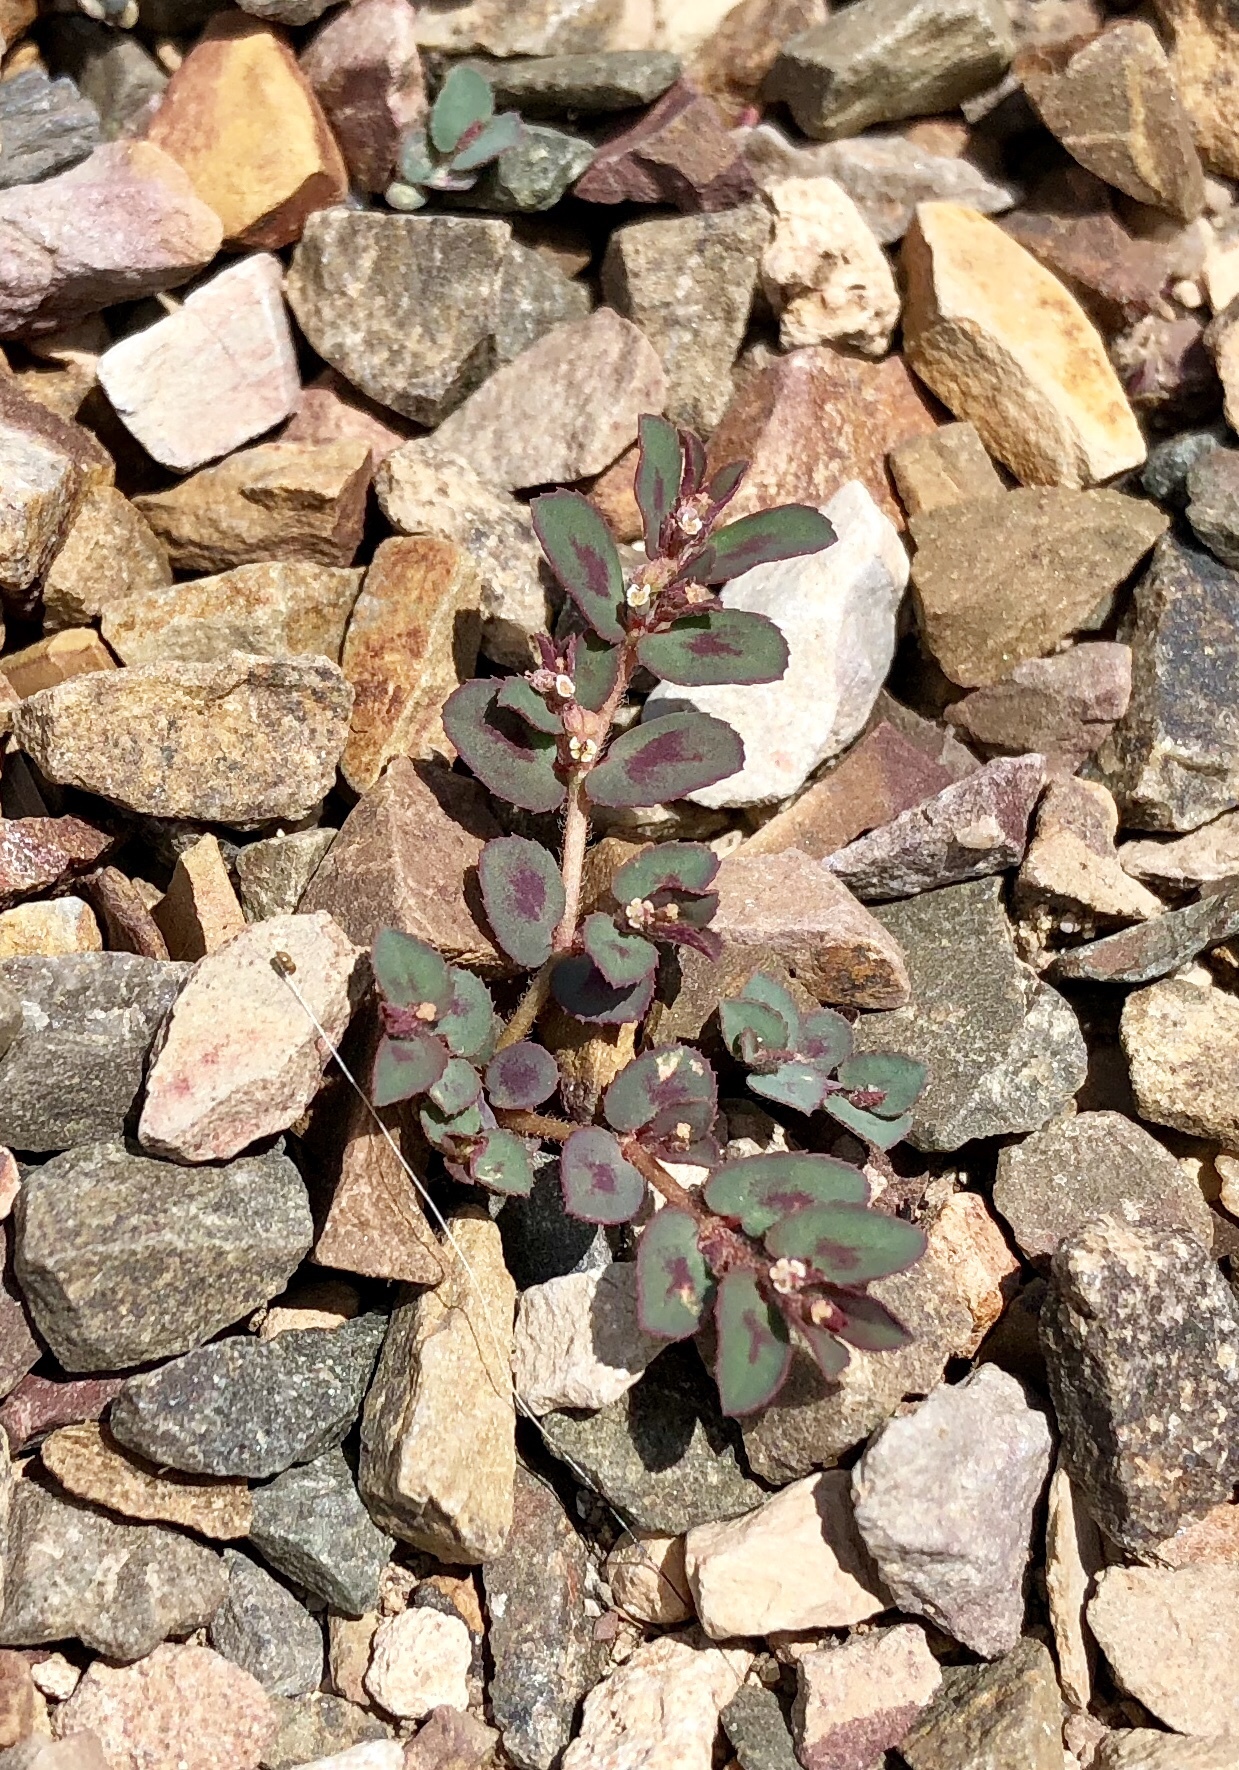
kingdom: Plantae
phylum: Tracheophyta
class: Magnoliopsida
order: Malpighiales
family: Euphorbiaceae
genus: Euphorbia
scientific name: Euphorbia maculata
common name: Spotted spurge
